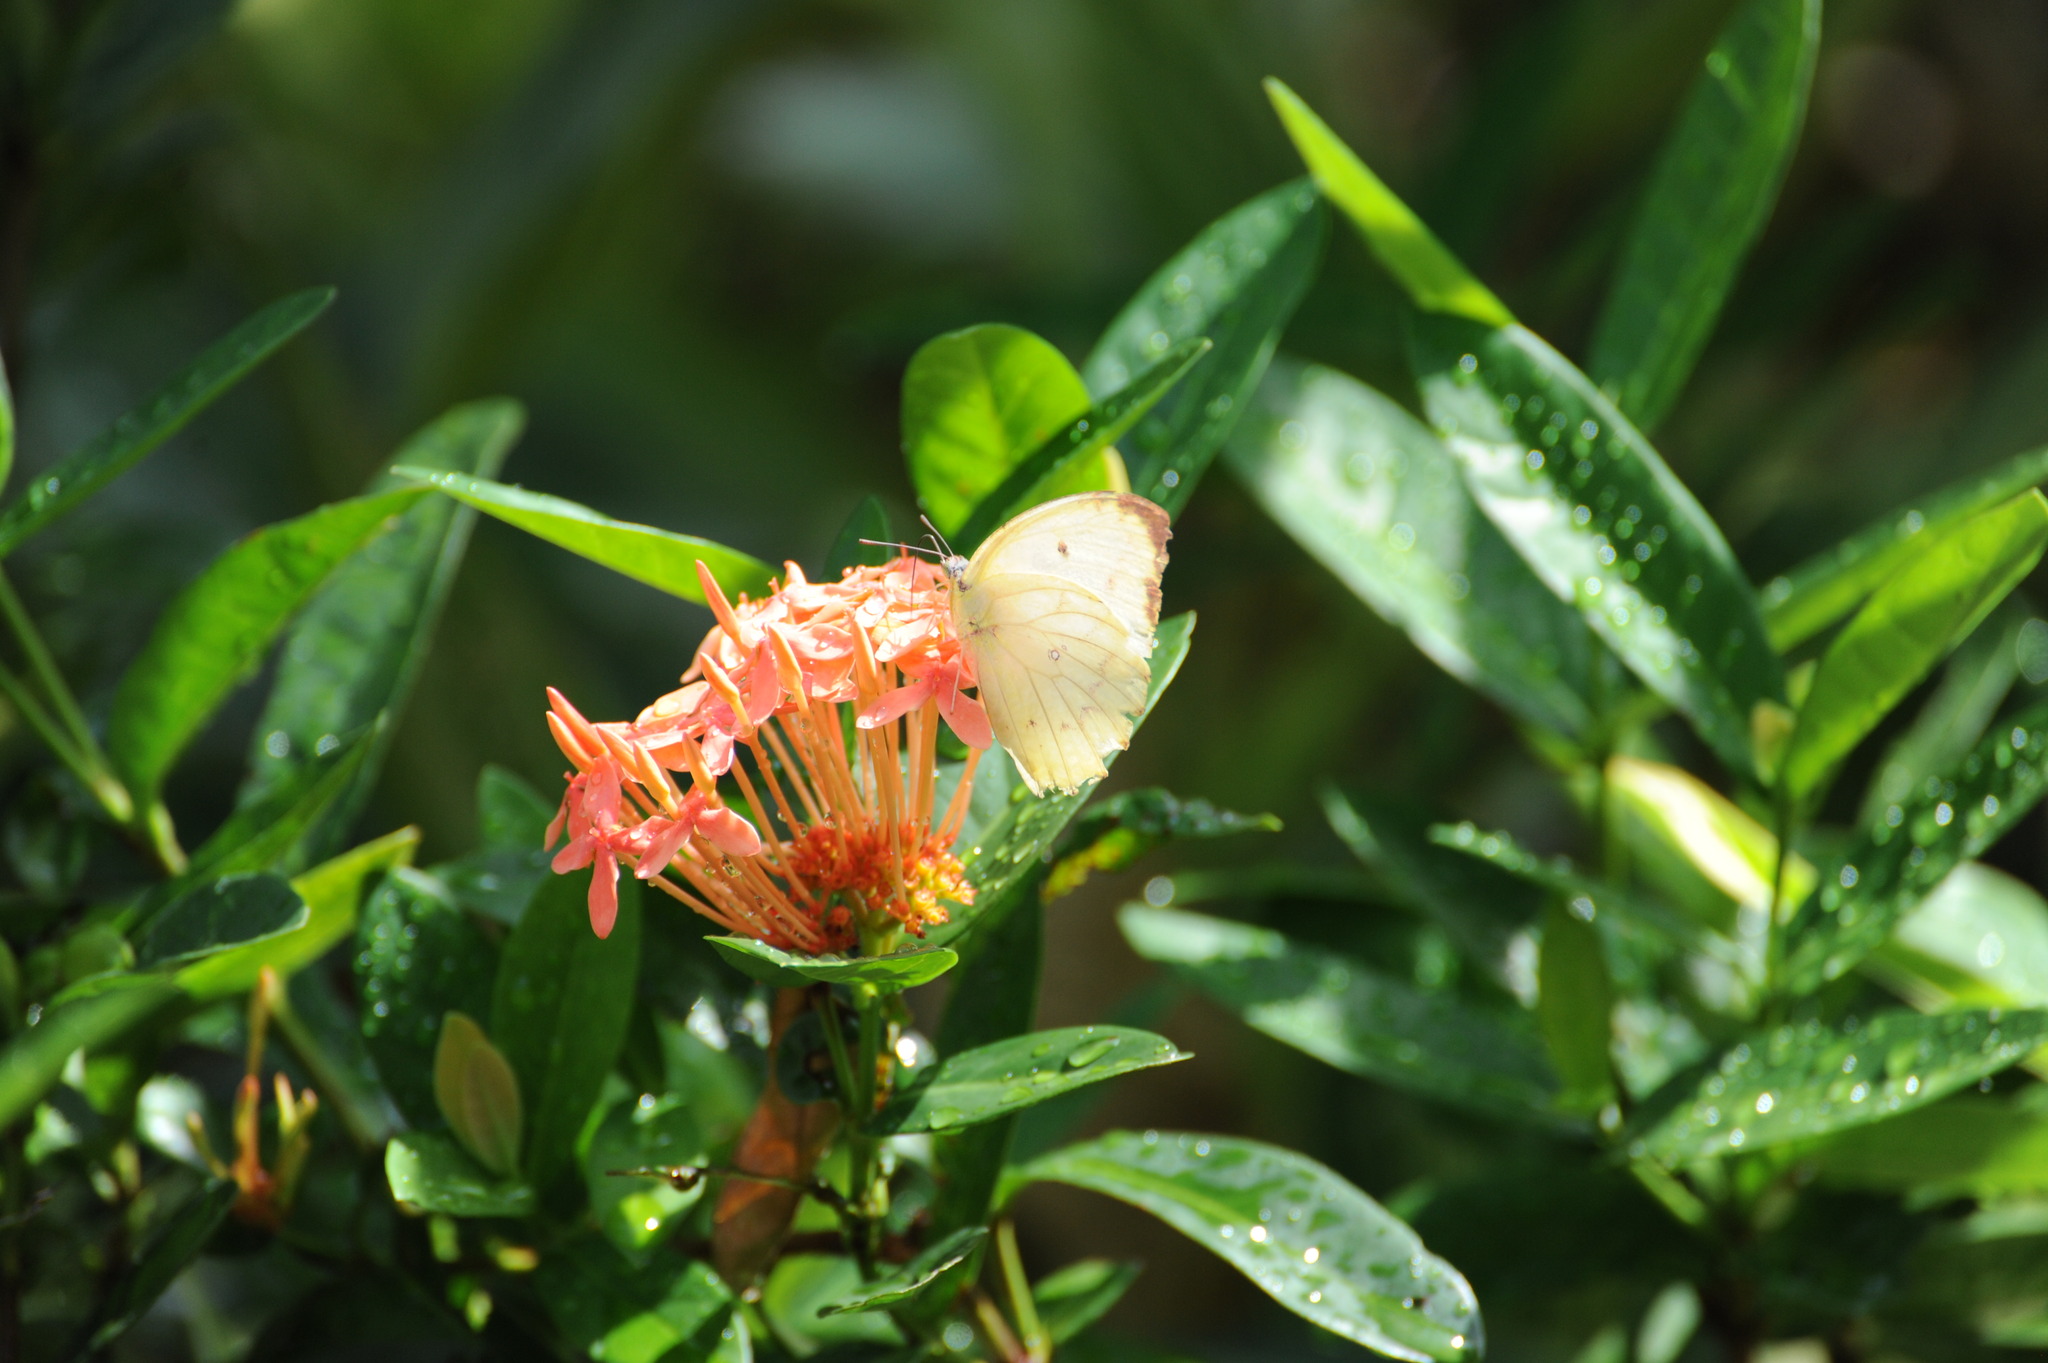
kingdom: Animalia
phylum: Arthropoda
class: Insecta
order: Lepidoptera
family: Pieridae
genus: Catopsilia
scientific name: Catopsilia pomona
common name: Common emigrant
